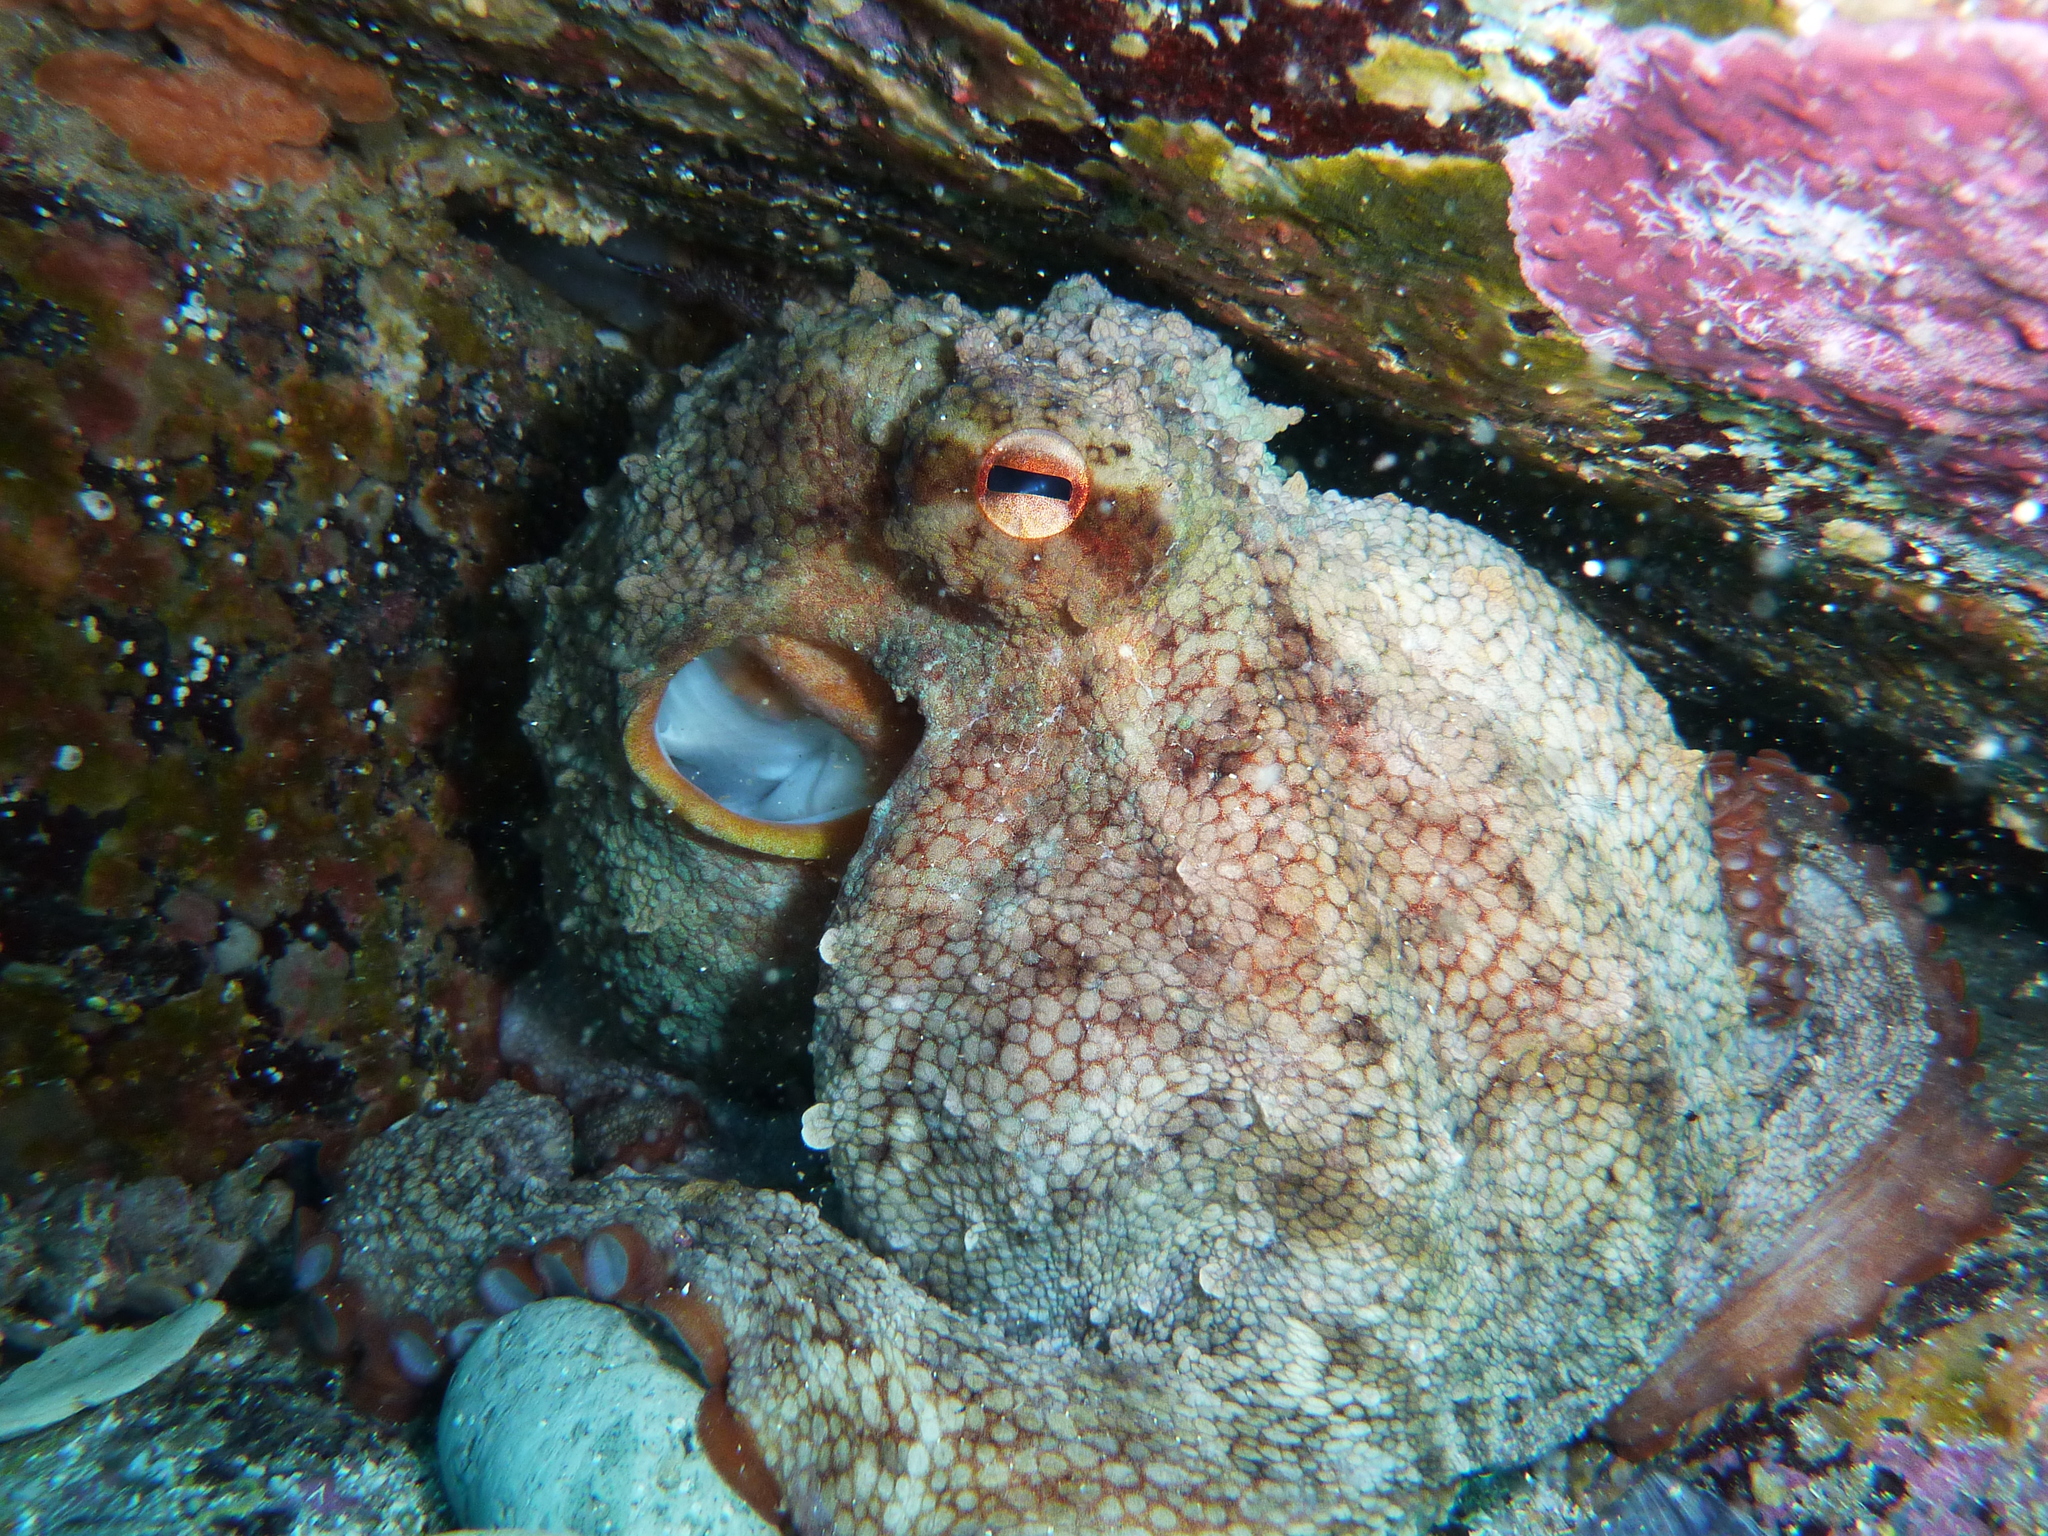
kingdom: Animalia
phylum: Mollusca
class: Cephalopoda
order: Octopoda
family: Octopodidae
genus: Octopus
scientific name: Octopus tetricus
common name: Sydney octopus
